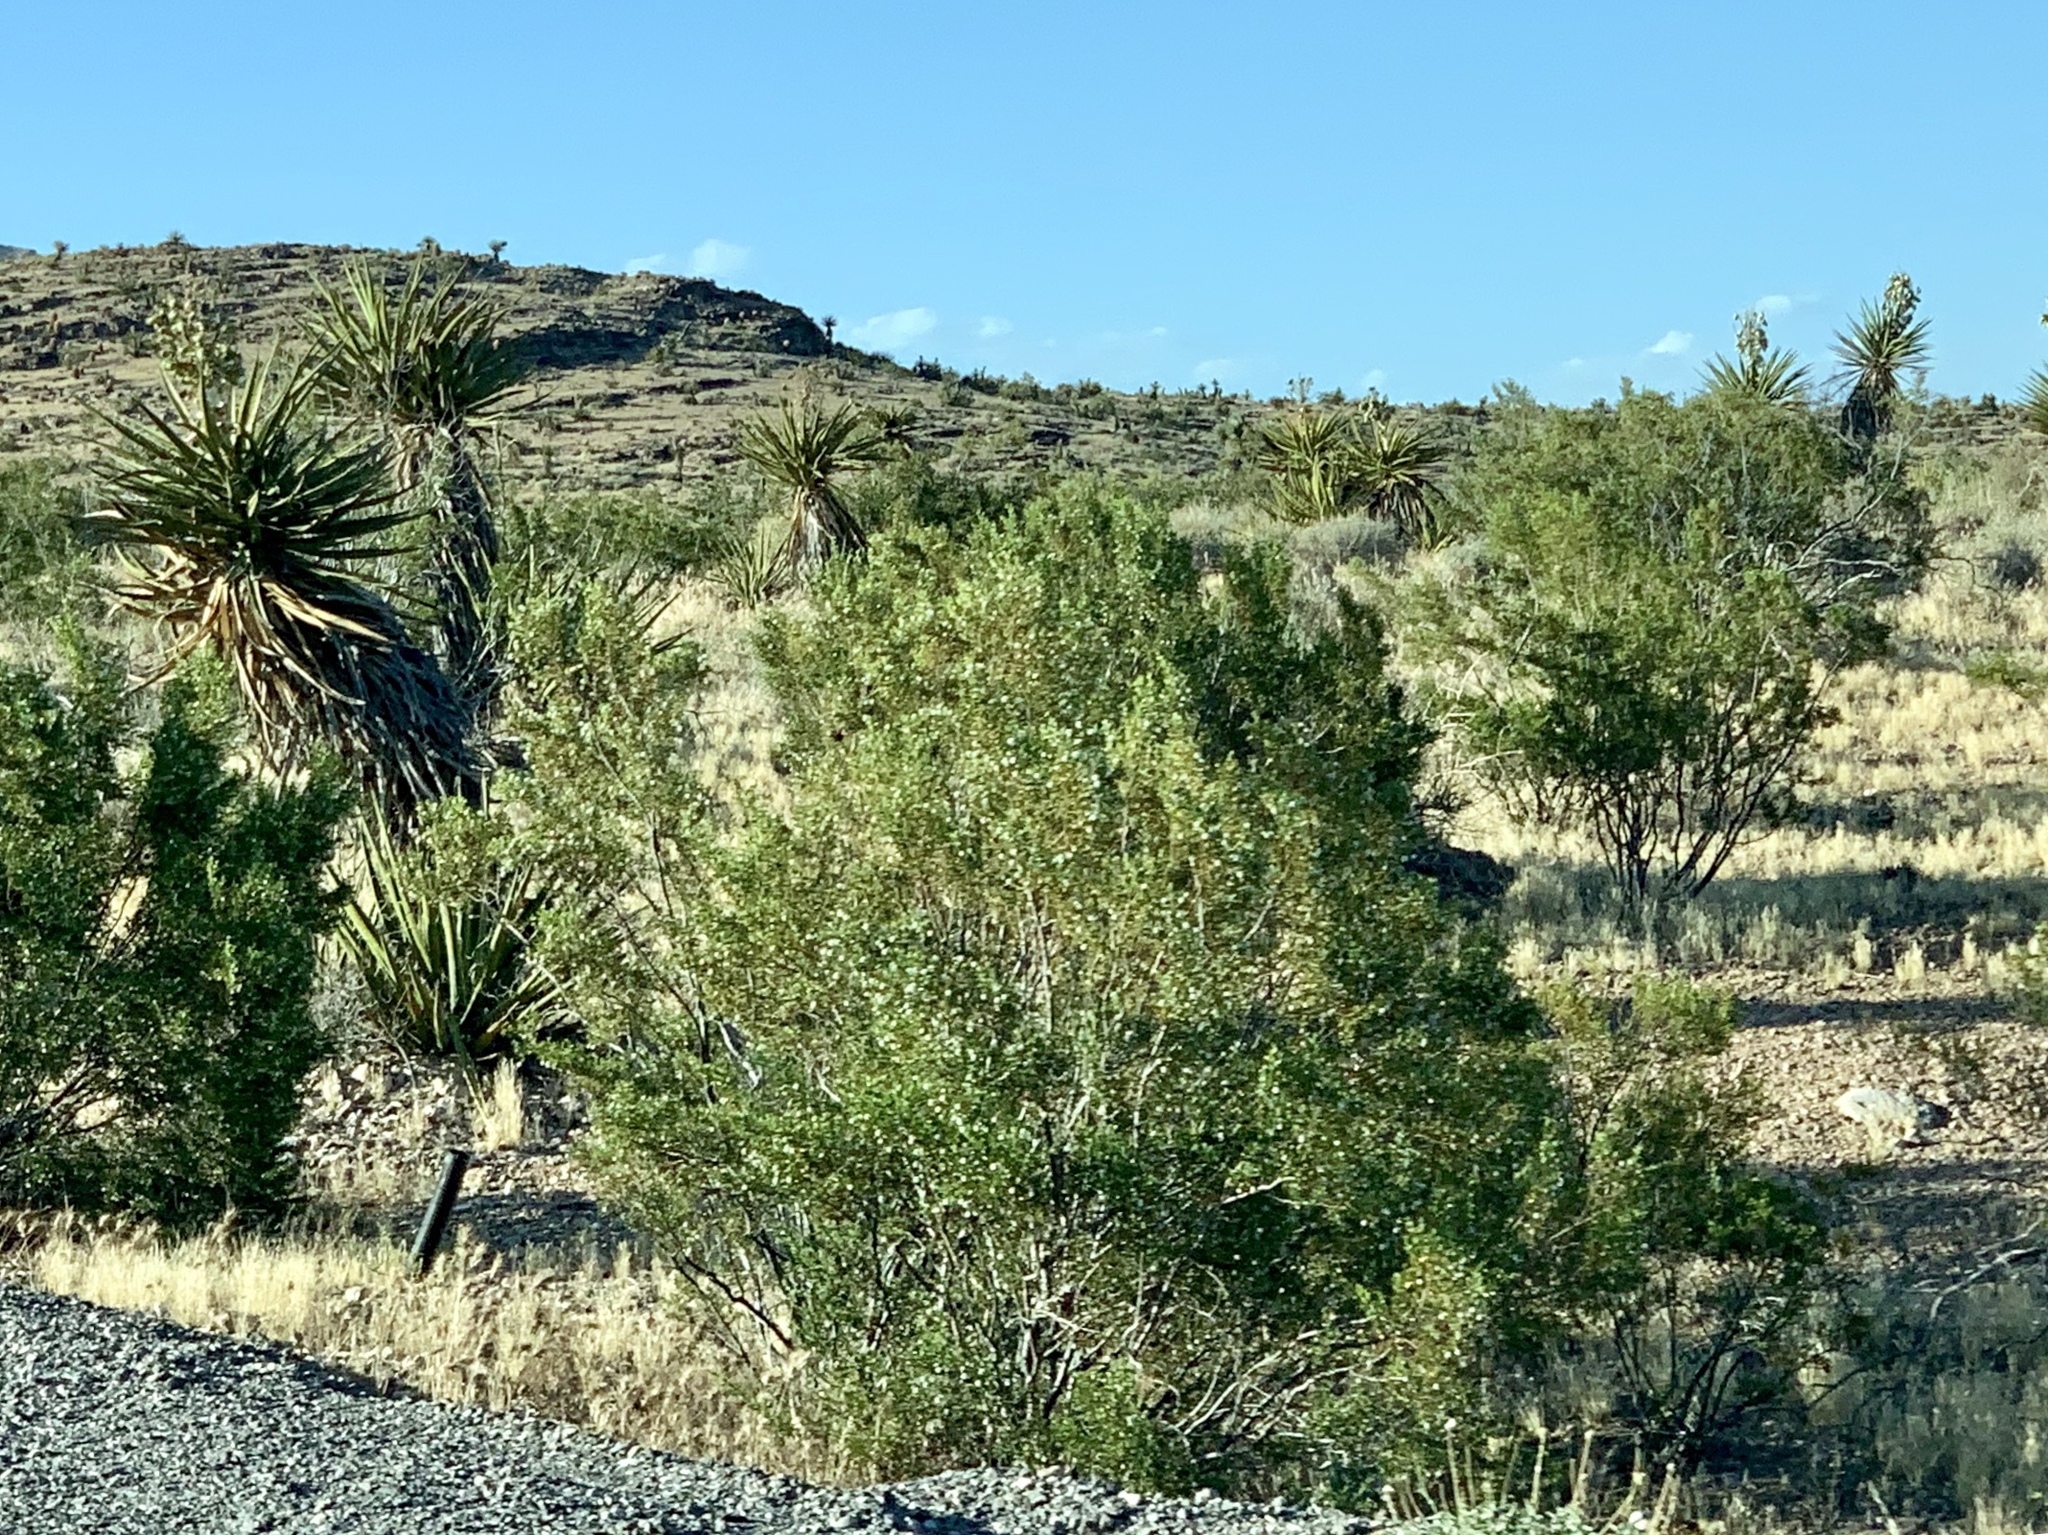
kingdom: Plantae
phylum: Tracheophyta
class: Magnoliopsida
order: Zygophyllales
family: Zygophyllaceae
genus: Larrea
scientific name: Larrea tridentata
